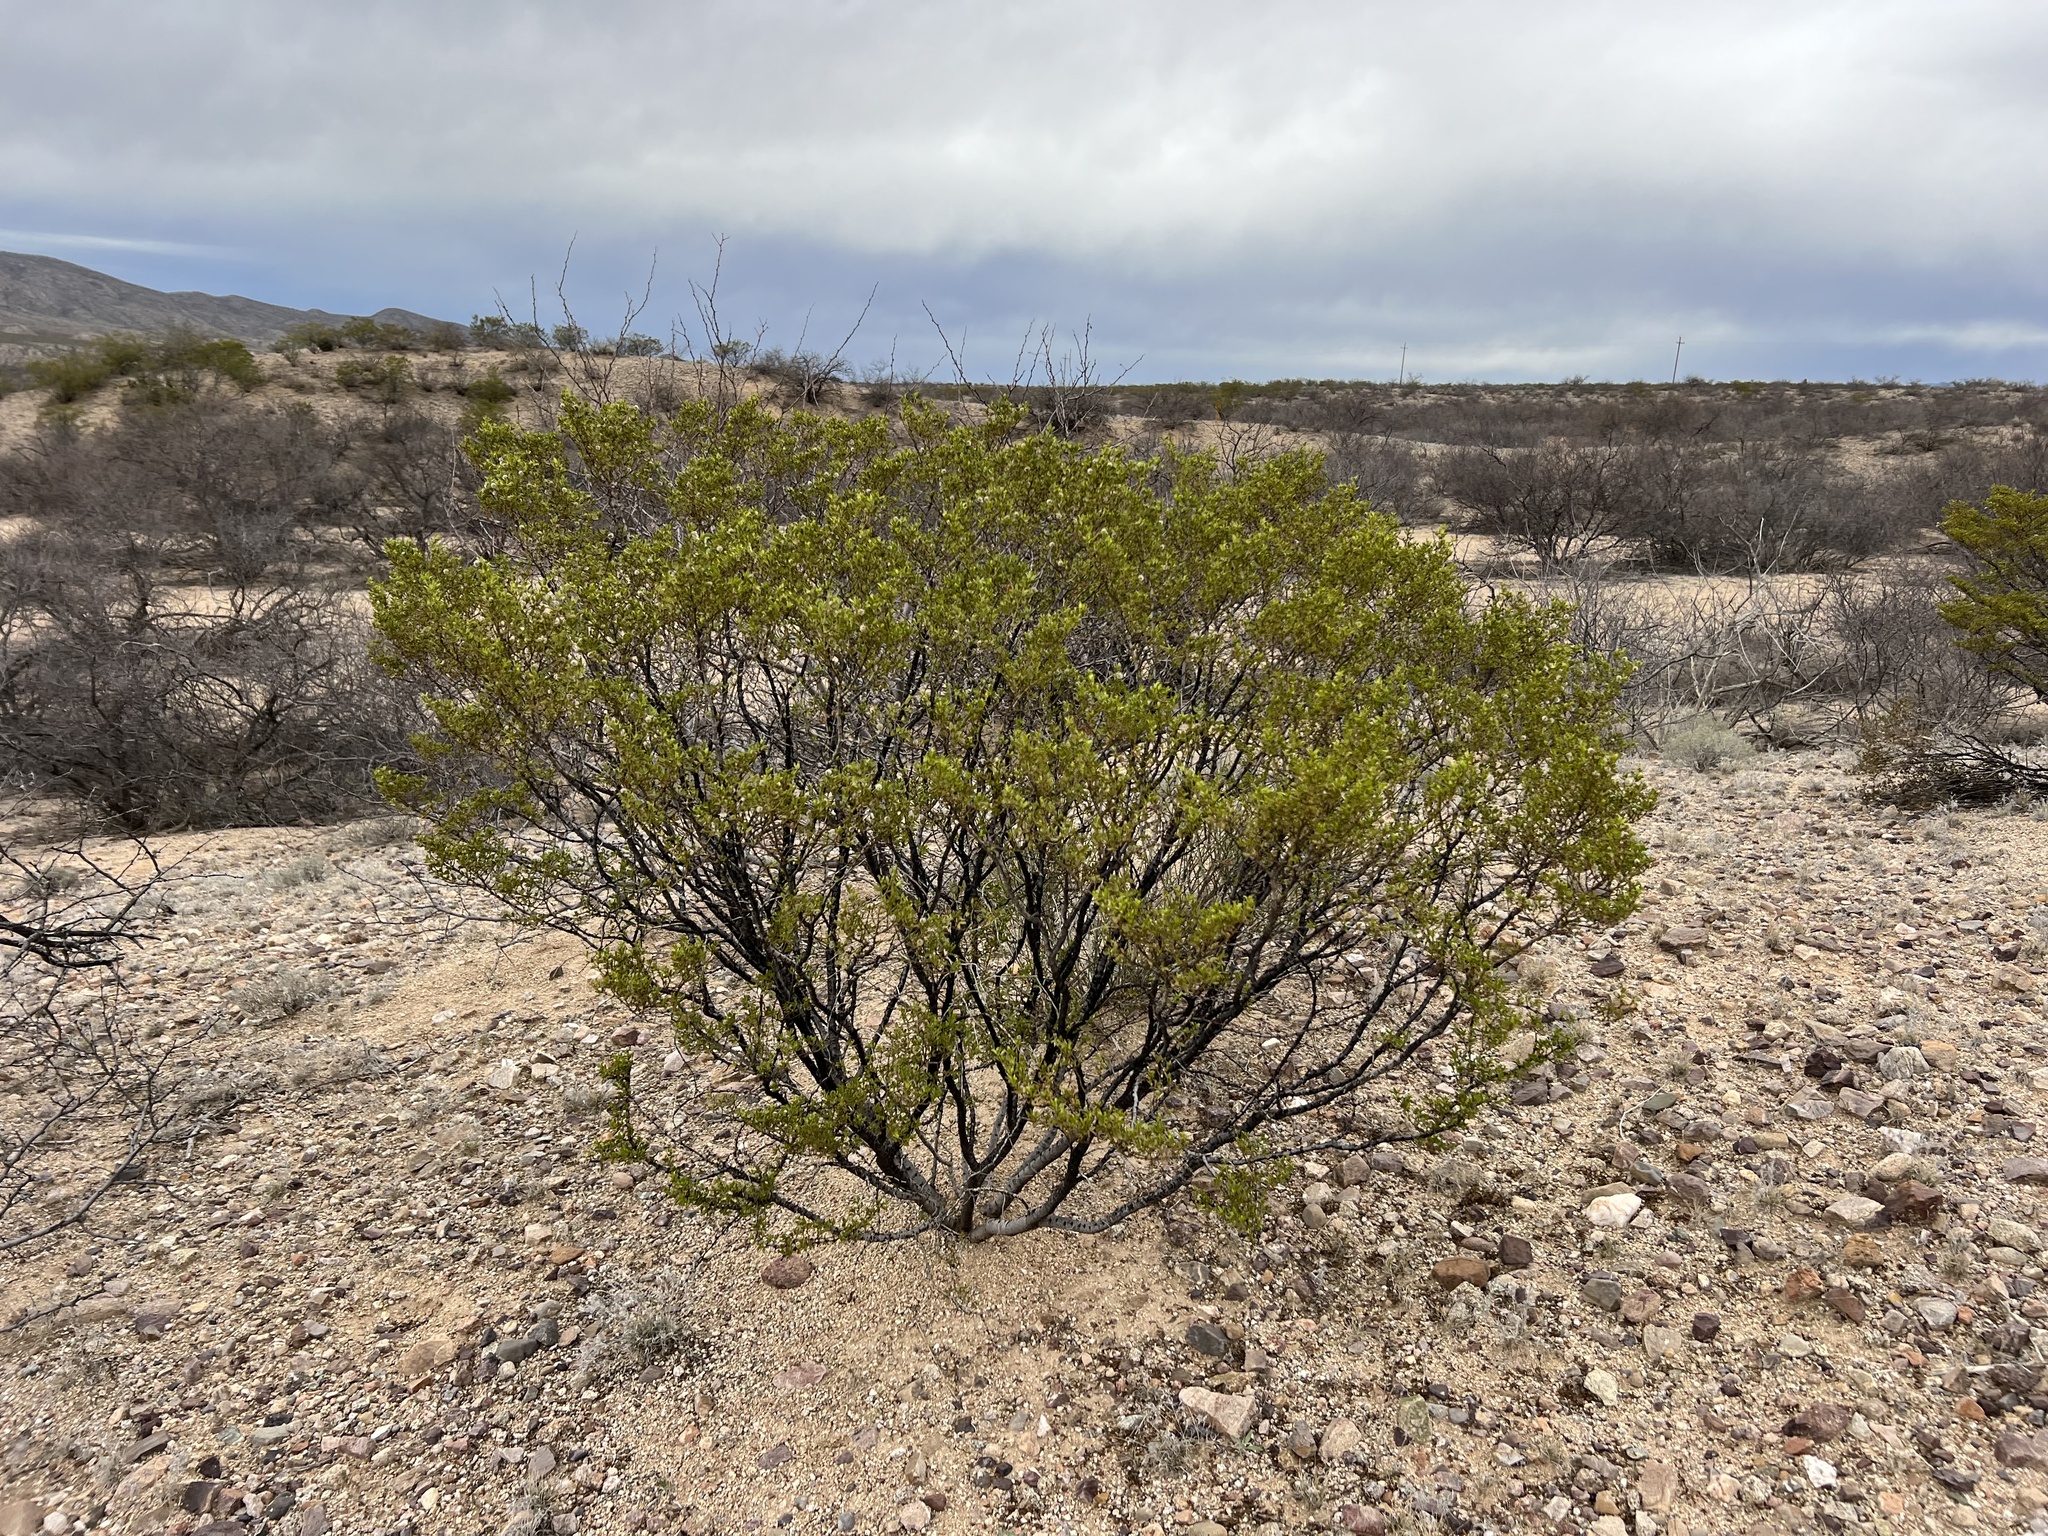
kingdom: Plantae
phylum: Tracheophyta
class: Magnoliopsida
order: Zygophyllales
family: Zygophyllaceae
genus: Larrea
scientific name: Larrea tridentata
